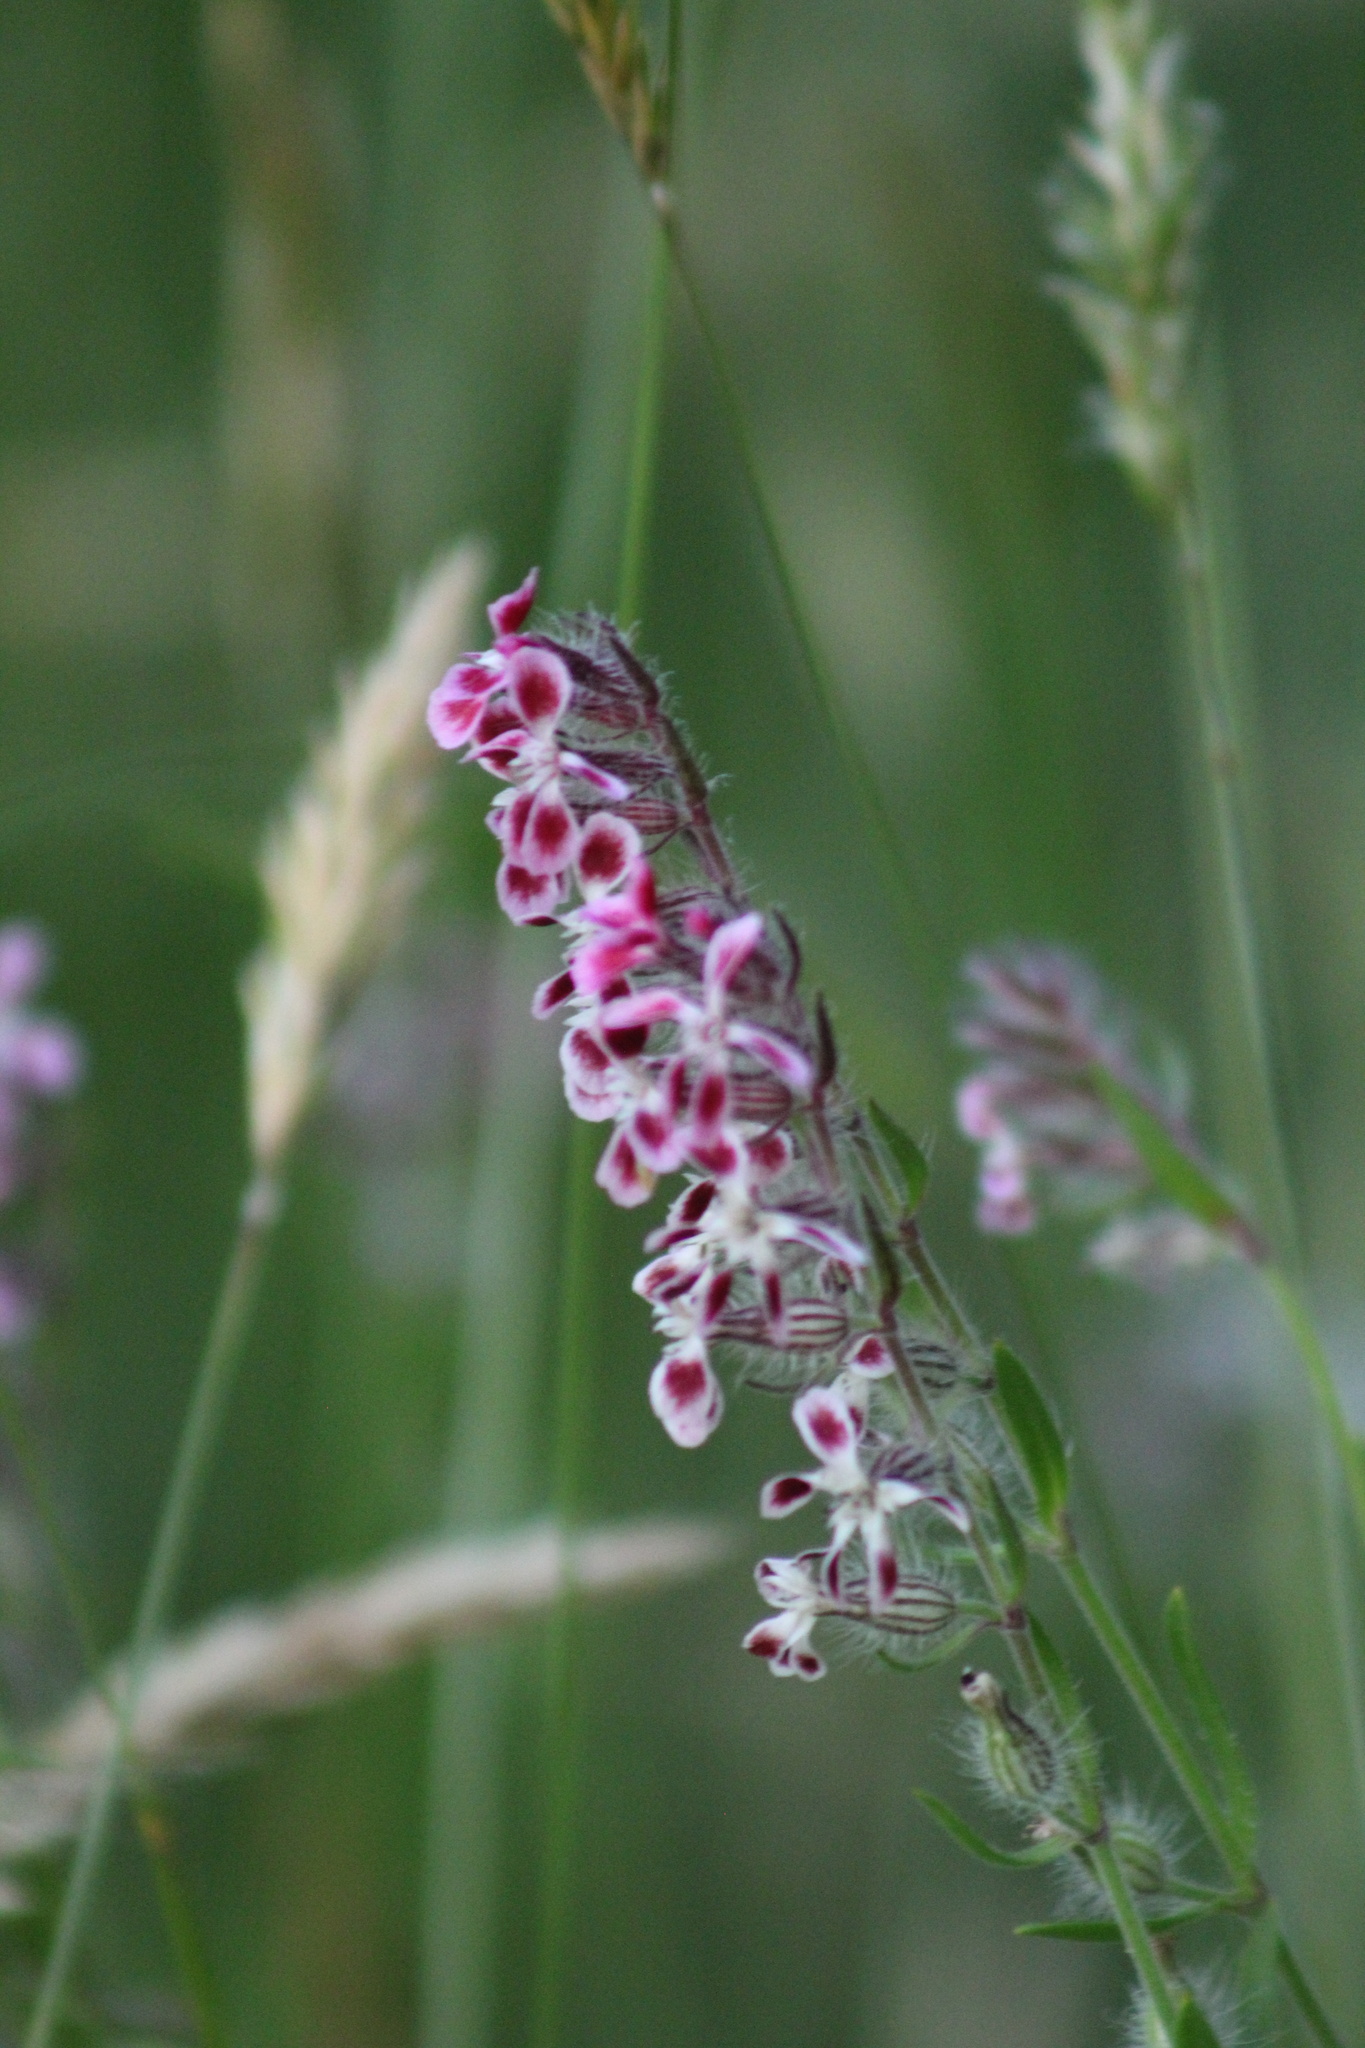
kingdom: Plantae
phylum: Tracheophyta
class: Magnoliopsida
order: Caryophyllales
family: Caryophyllaceae
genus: Silene
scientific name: Silene gallica
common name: Small-flowered catchfly
